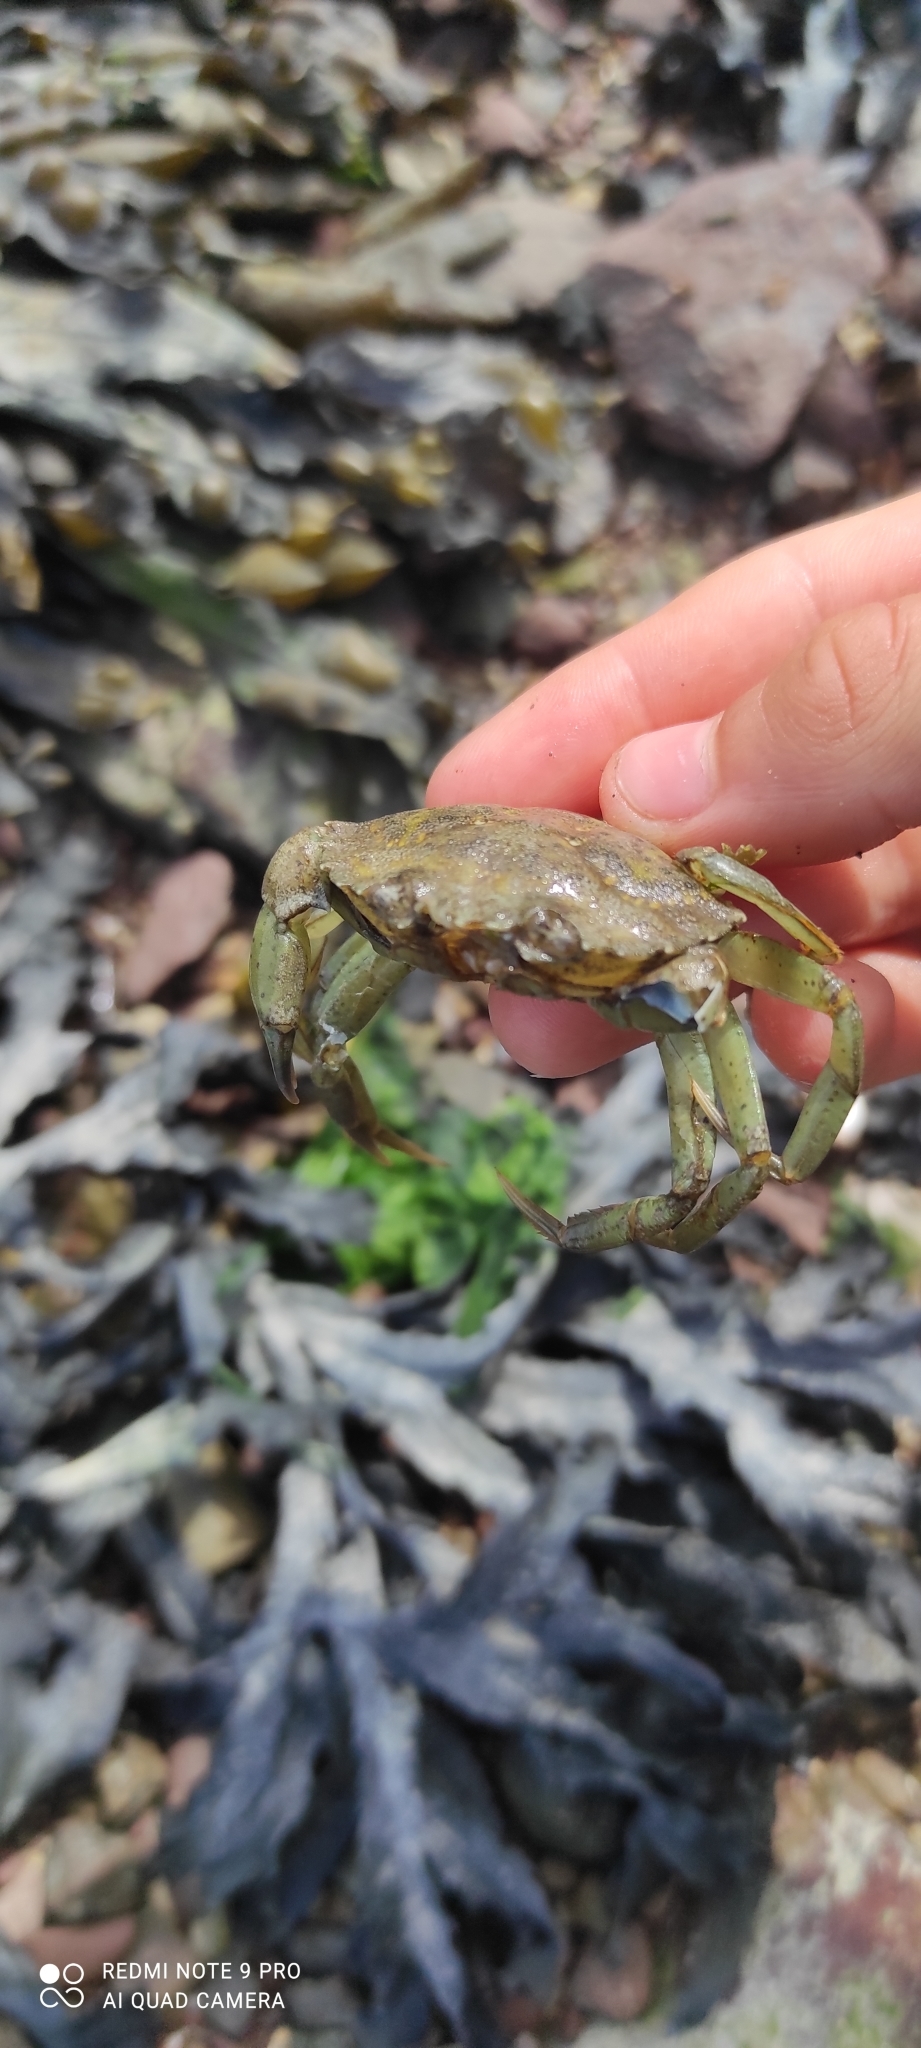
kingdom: Animalia
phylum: Arthropoda
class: Malacostraca
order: Decapoda
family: Carcinidae
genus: Carcinus
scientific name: Carcinus maenas
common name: European green crab
